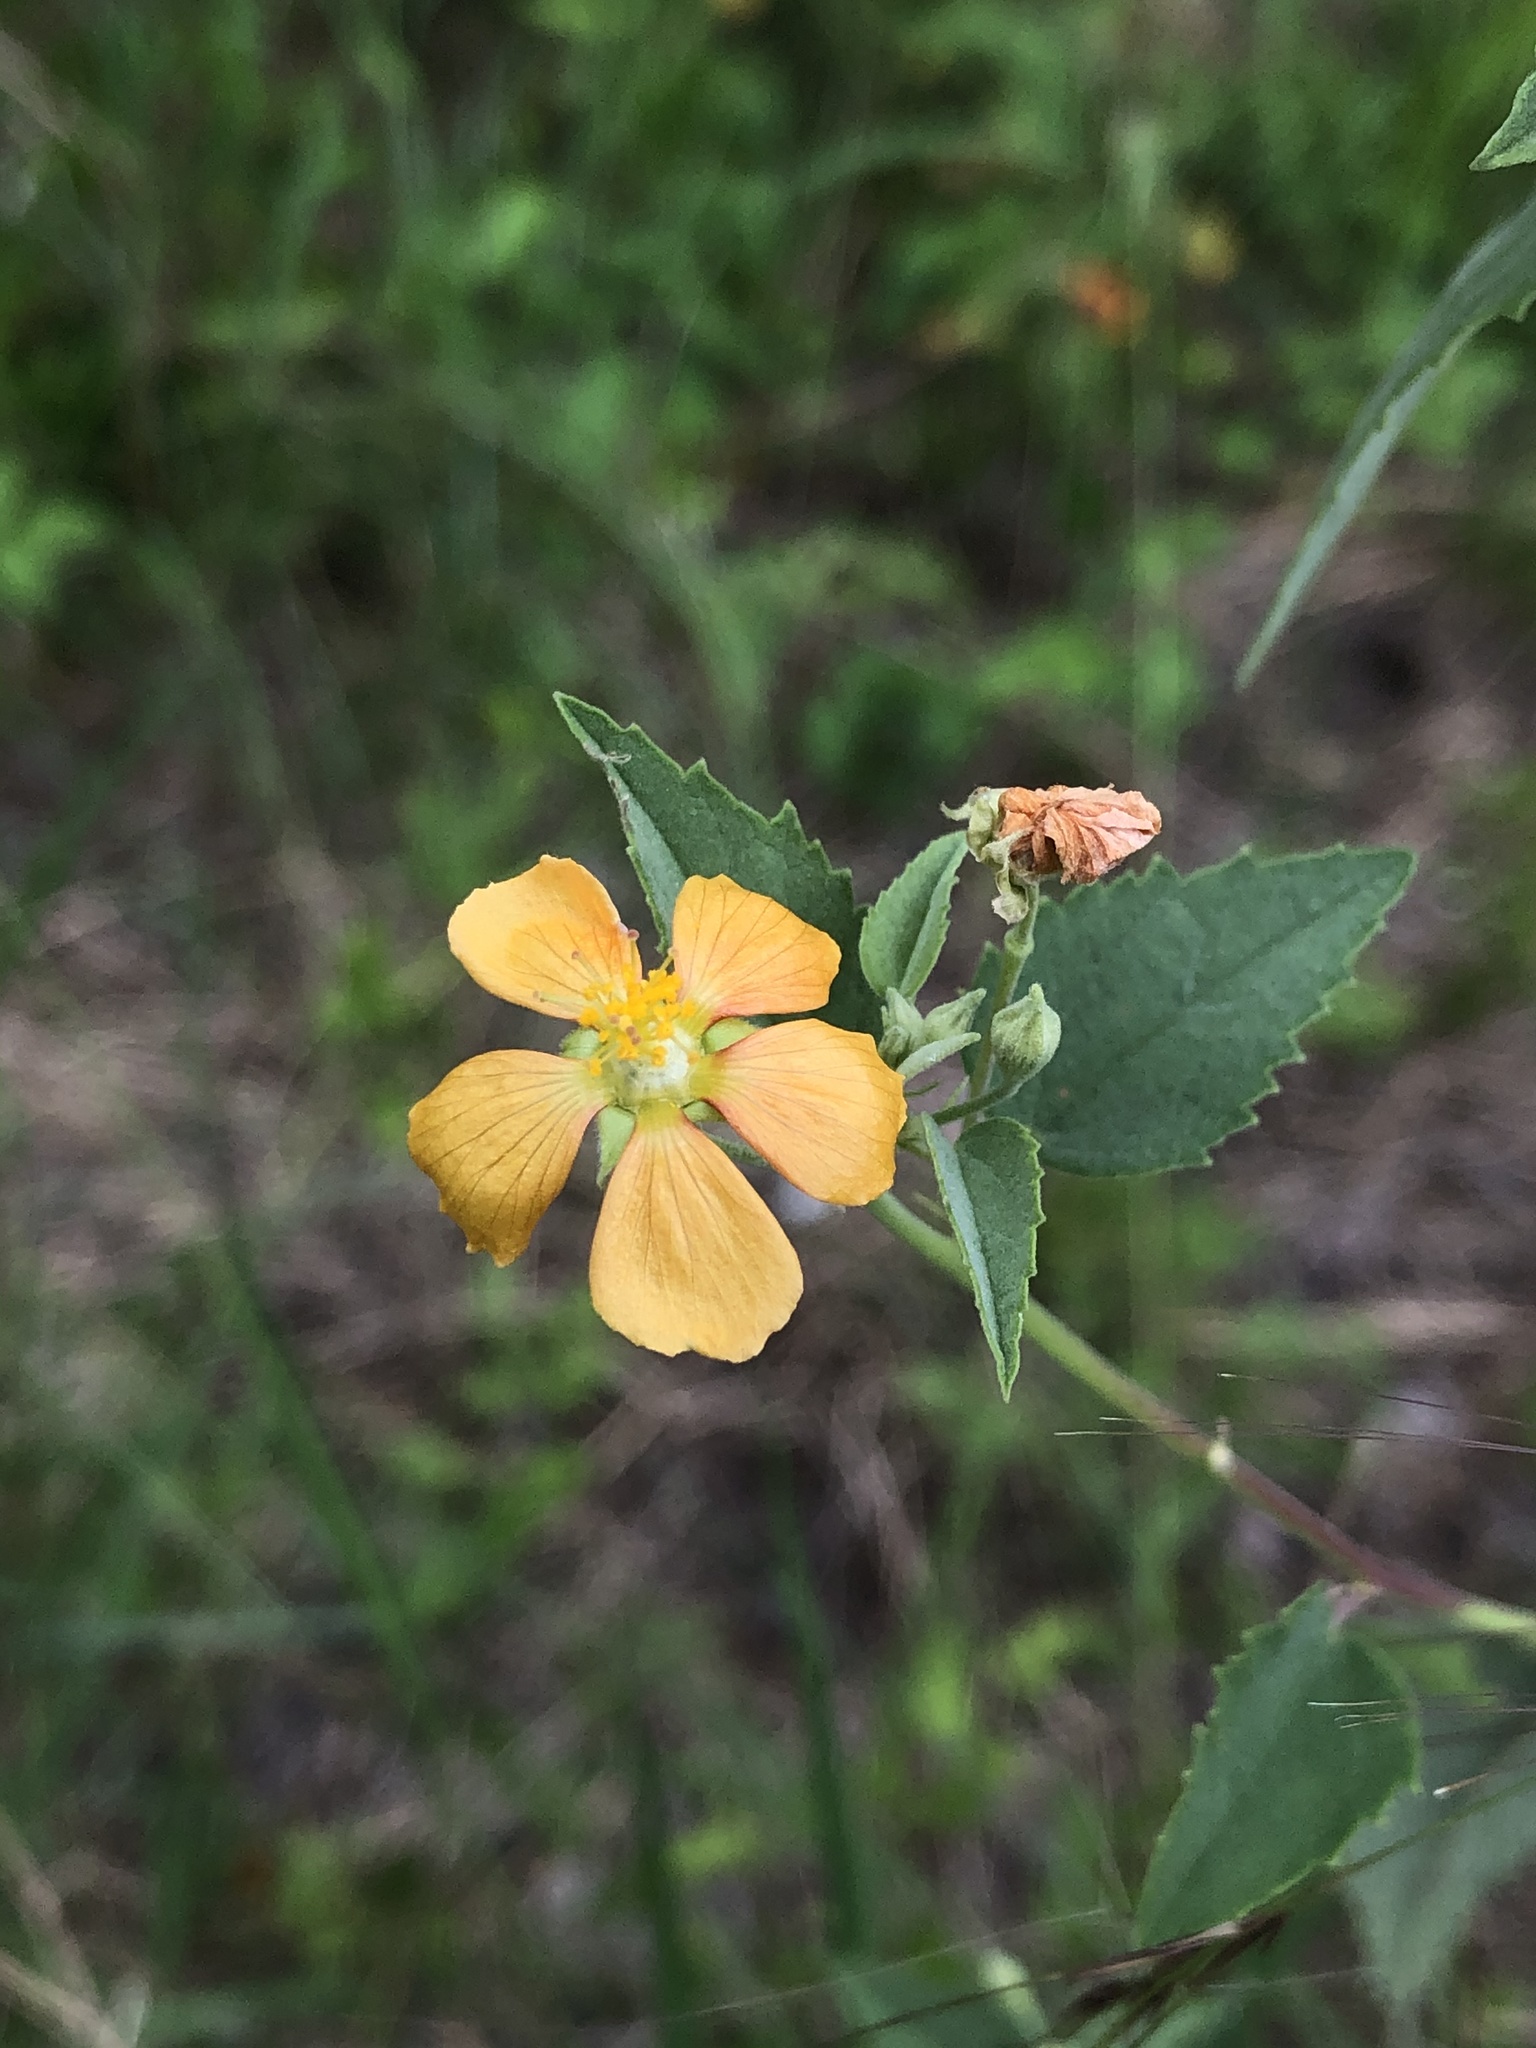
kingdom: Plantae
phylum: Tracheophyta
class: Magnoliopsida
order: Malvales
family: Malvaceae
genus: Abutilon
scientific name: Abutilon fruticosum
